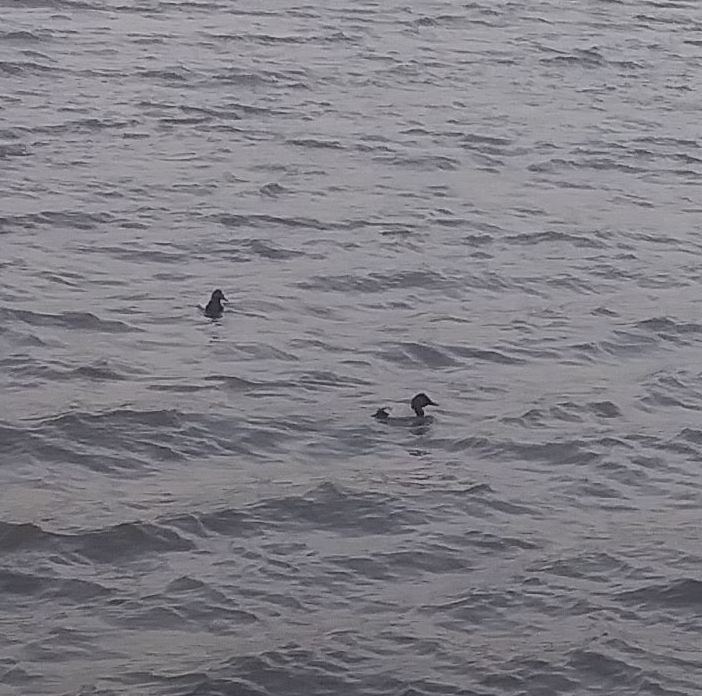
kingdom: Animalia
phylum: Chordata
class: Aves
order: Anseriformes
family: Anatidae
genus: Aythya
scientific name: Aythya valisineria
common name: Canvasback
